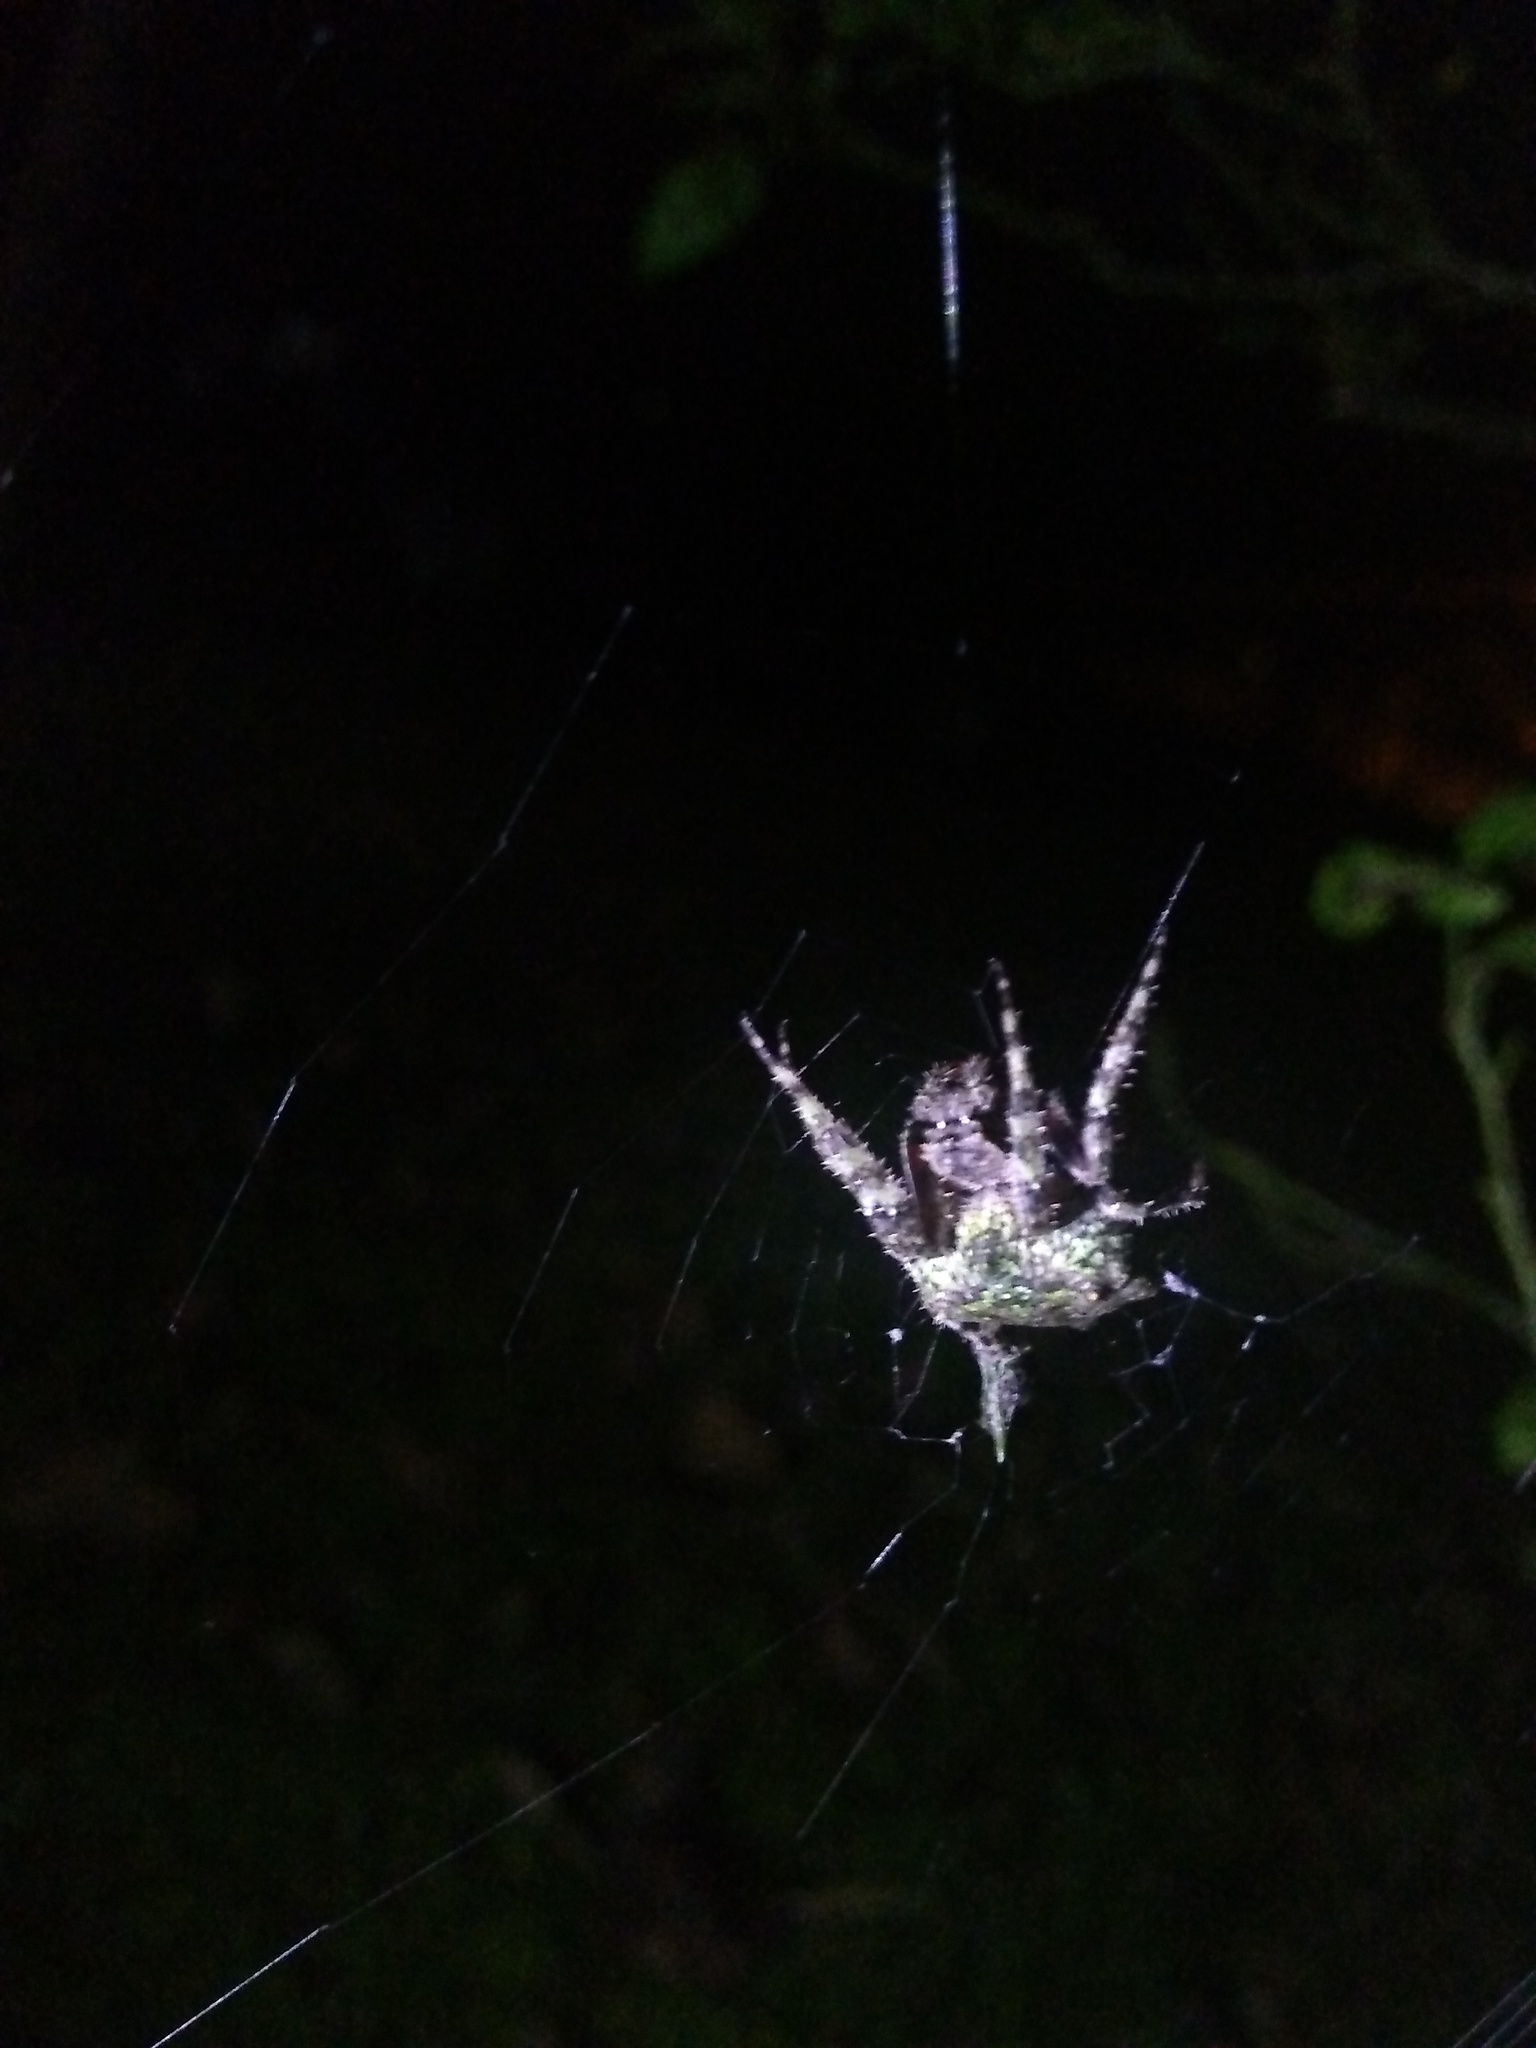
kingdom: Animalia
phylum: Arthropoda
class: Arachnida
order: Araneae
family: Araneidae
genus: Parawixia
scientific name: Parawixia audax
